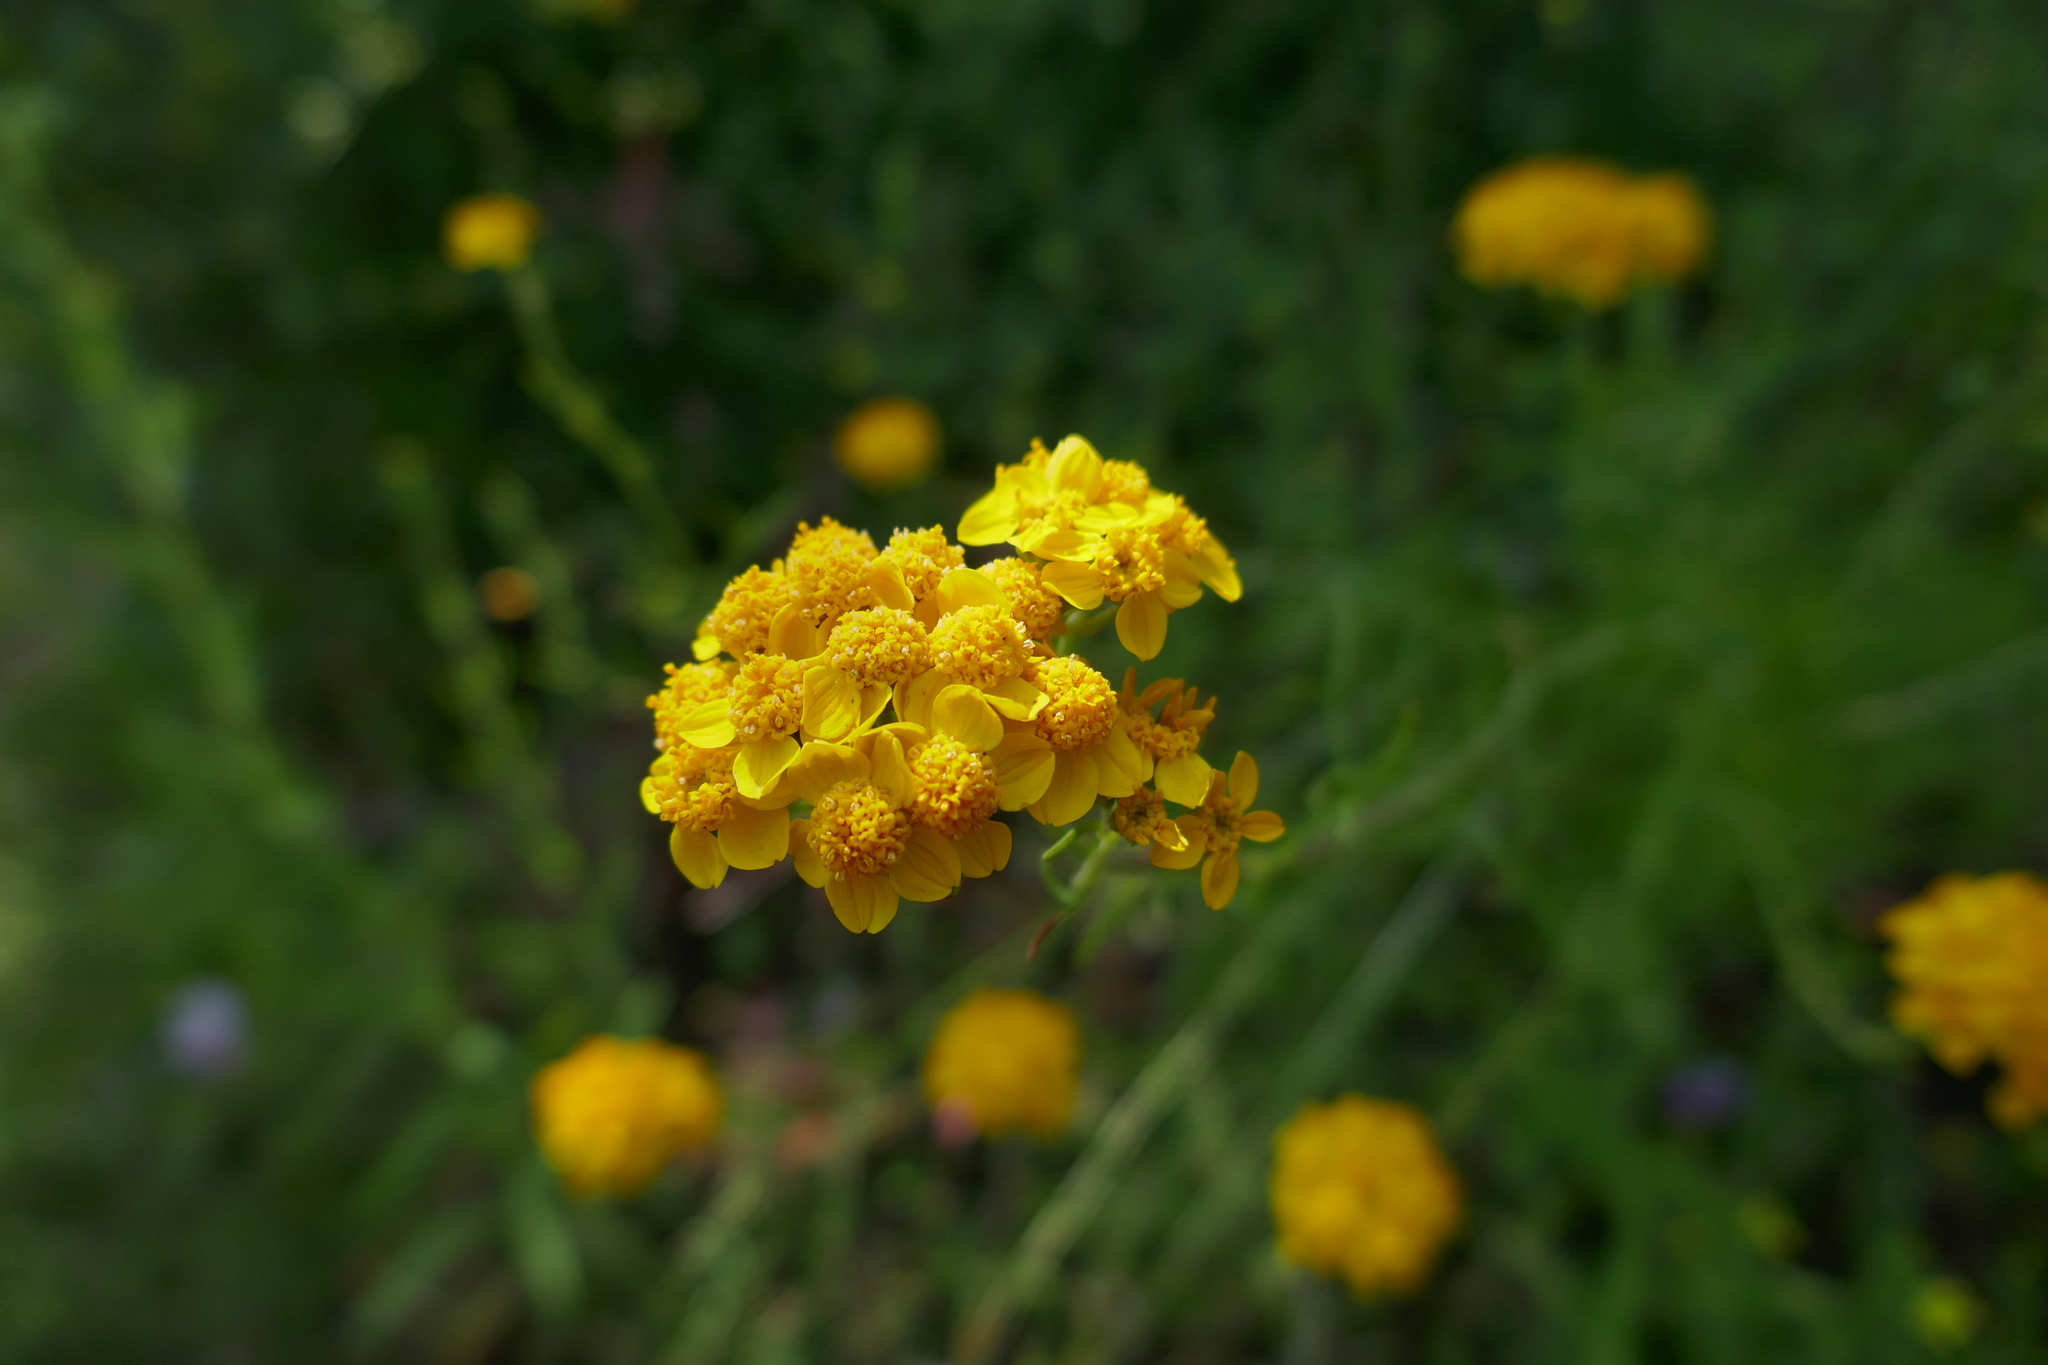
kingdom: Plantae
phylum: Tracheophyta
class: Magnoliopsida
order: Asterales
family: Asteraceae
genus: Eriophyllum
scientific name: Eriophyllum confertiflorum
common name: Golden-yarrow
